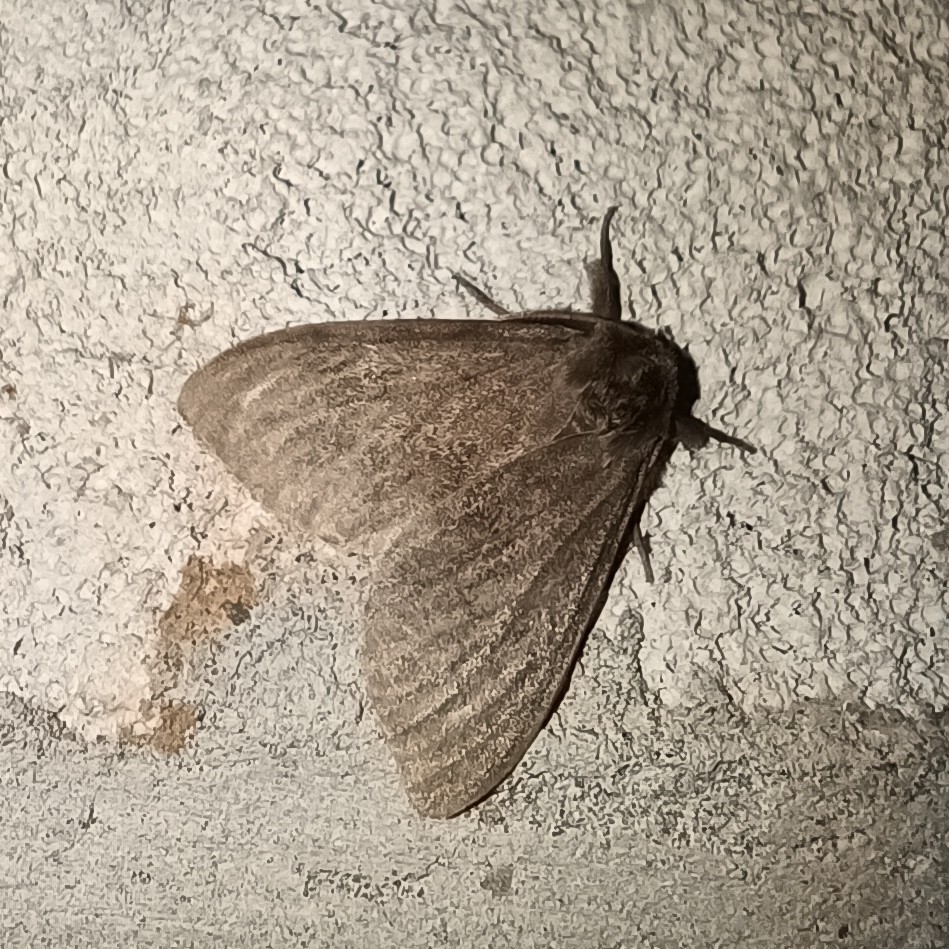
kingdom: Animalia
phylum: Arthropoda
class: Insecta
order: Lepidoptera
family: Erebidae
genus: Lymantria
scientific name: Lymantria monacha
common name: Black arches
